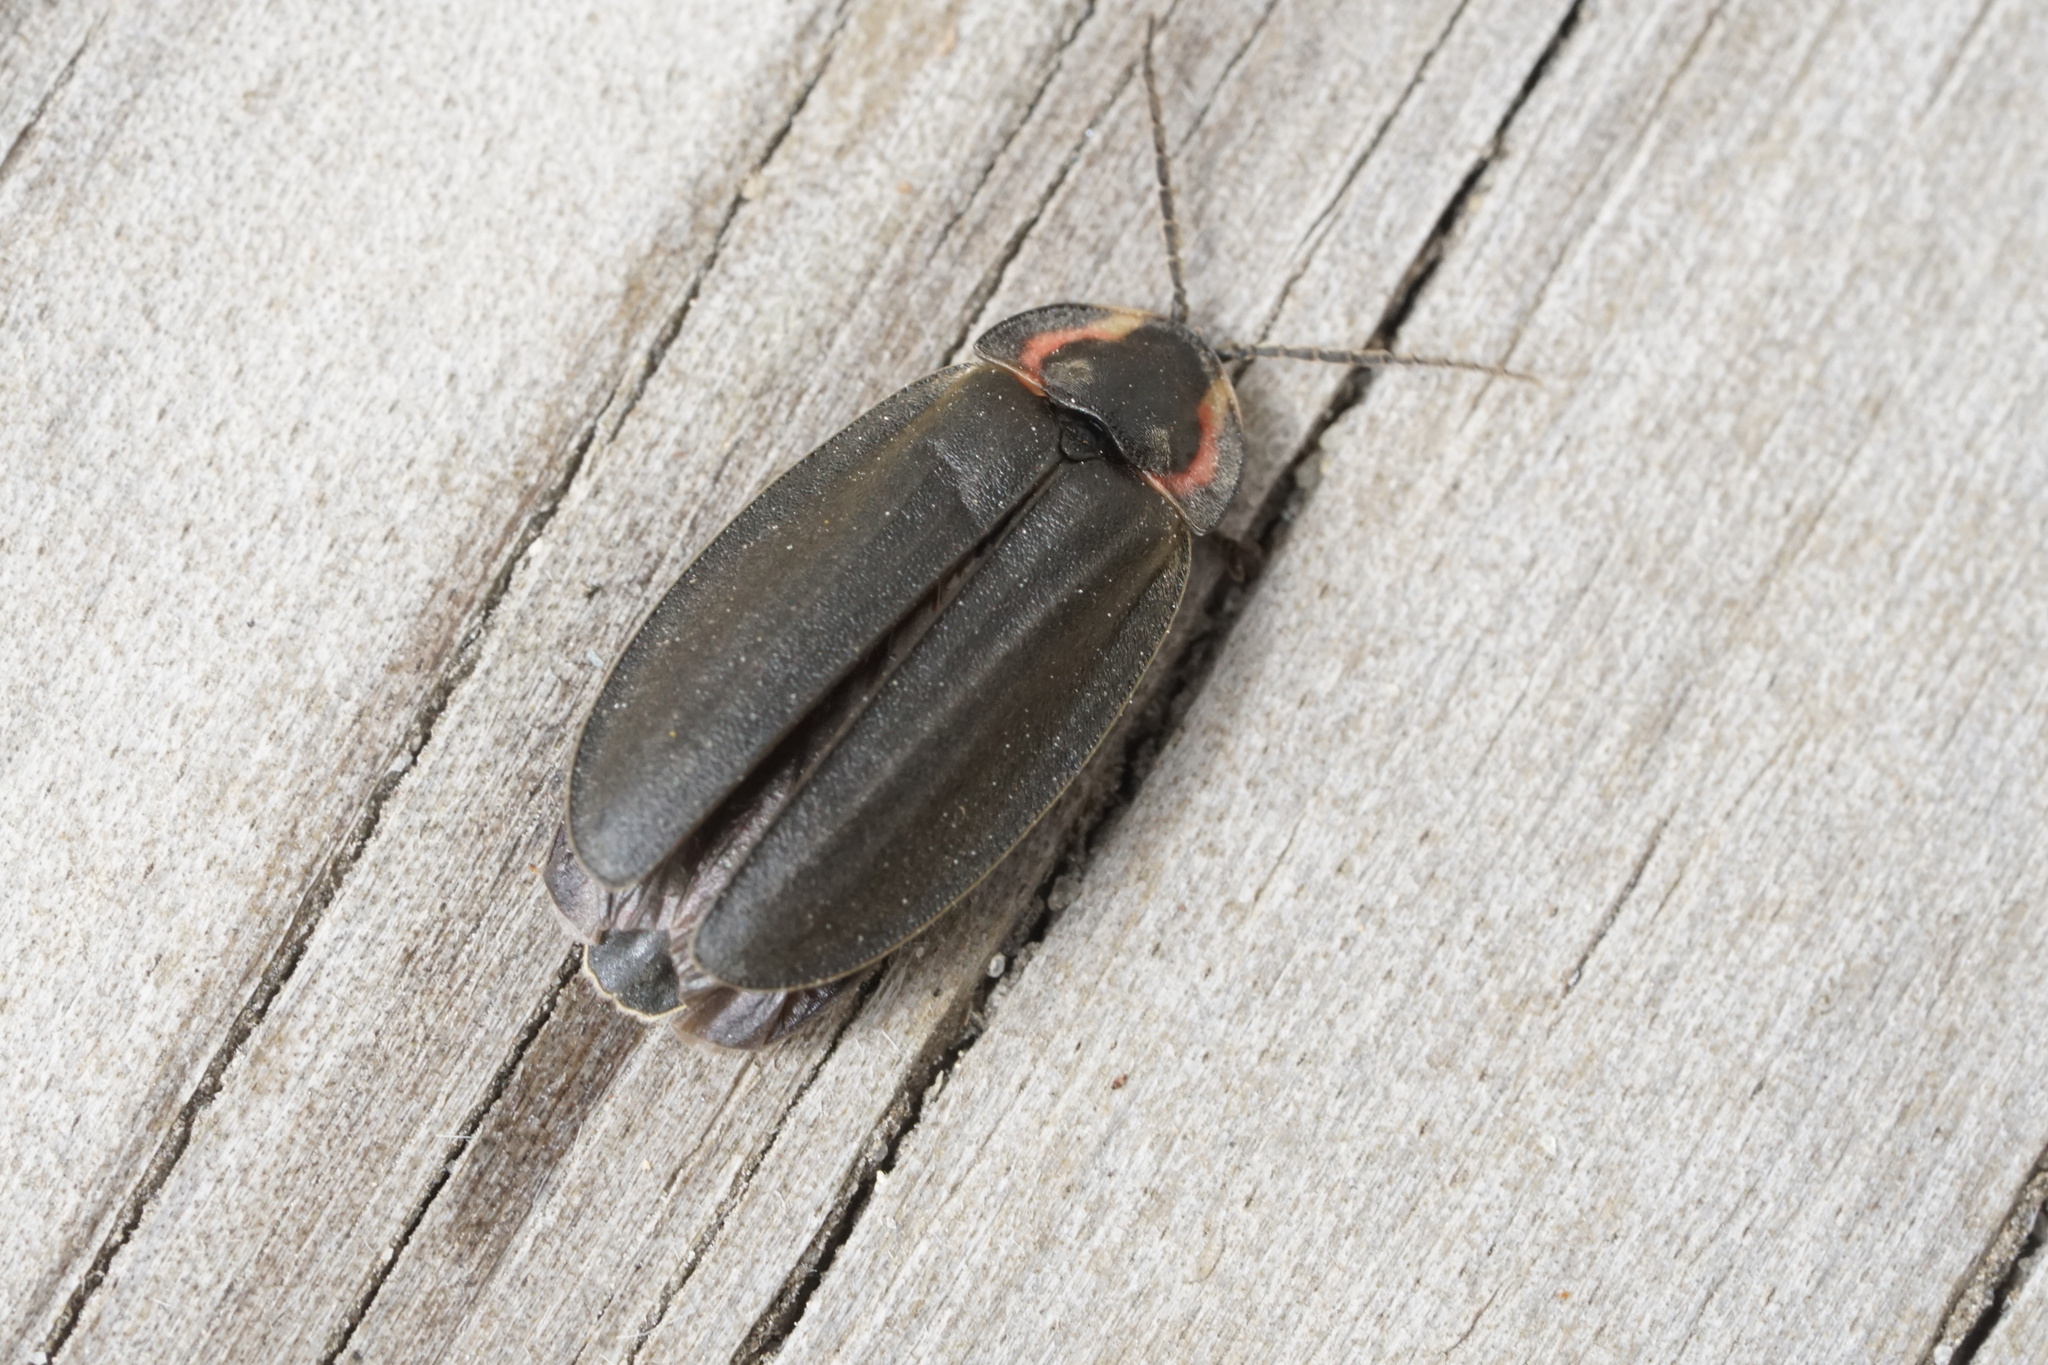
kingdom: Animalia
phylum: Arthropoda
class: Insecta
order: Coleoptera
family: Lampyridae
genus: Photinus
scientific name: Photinus corrusca
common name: Winter firefly
